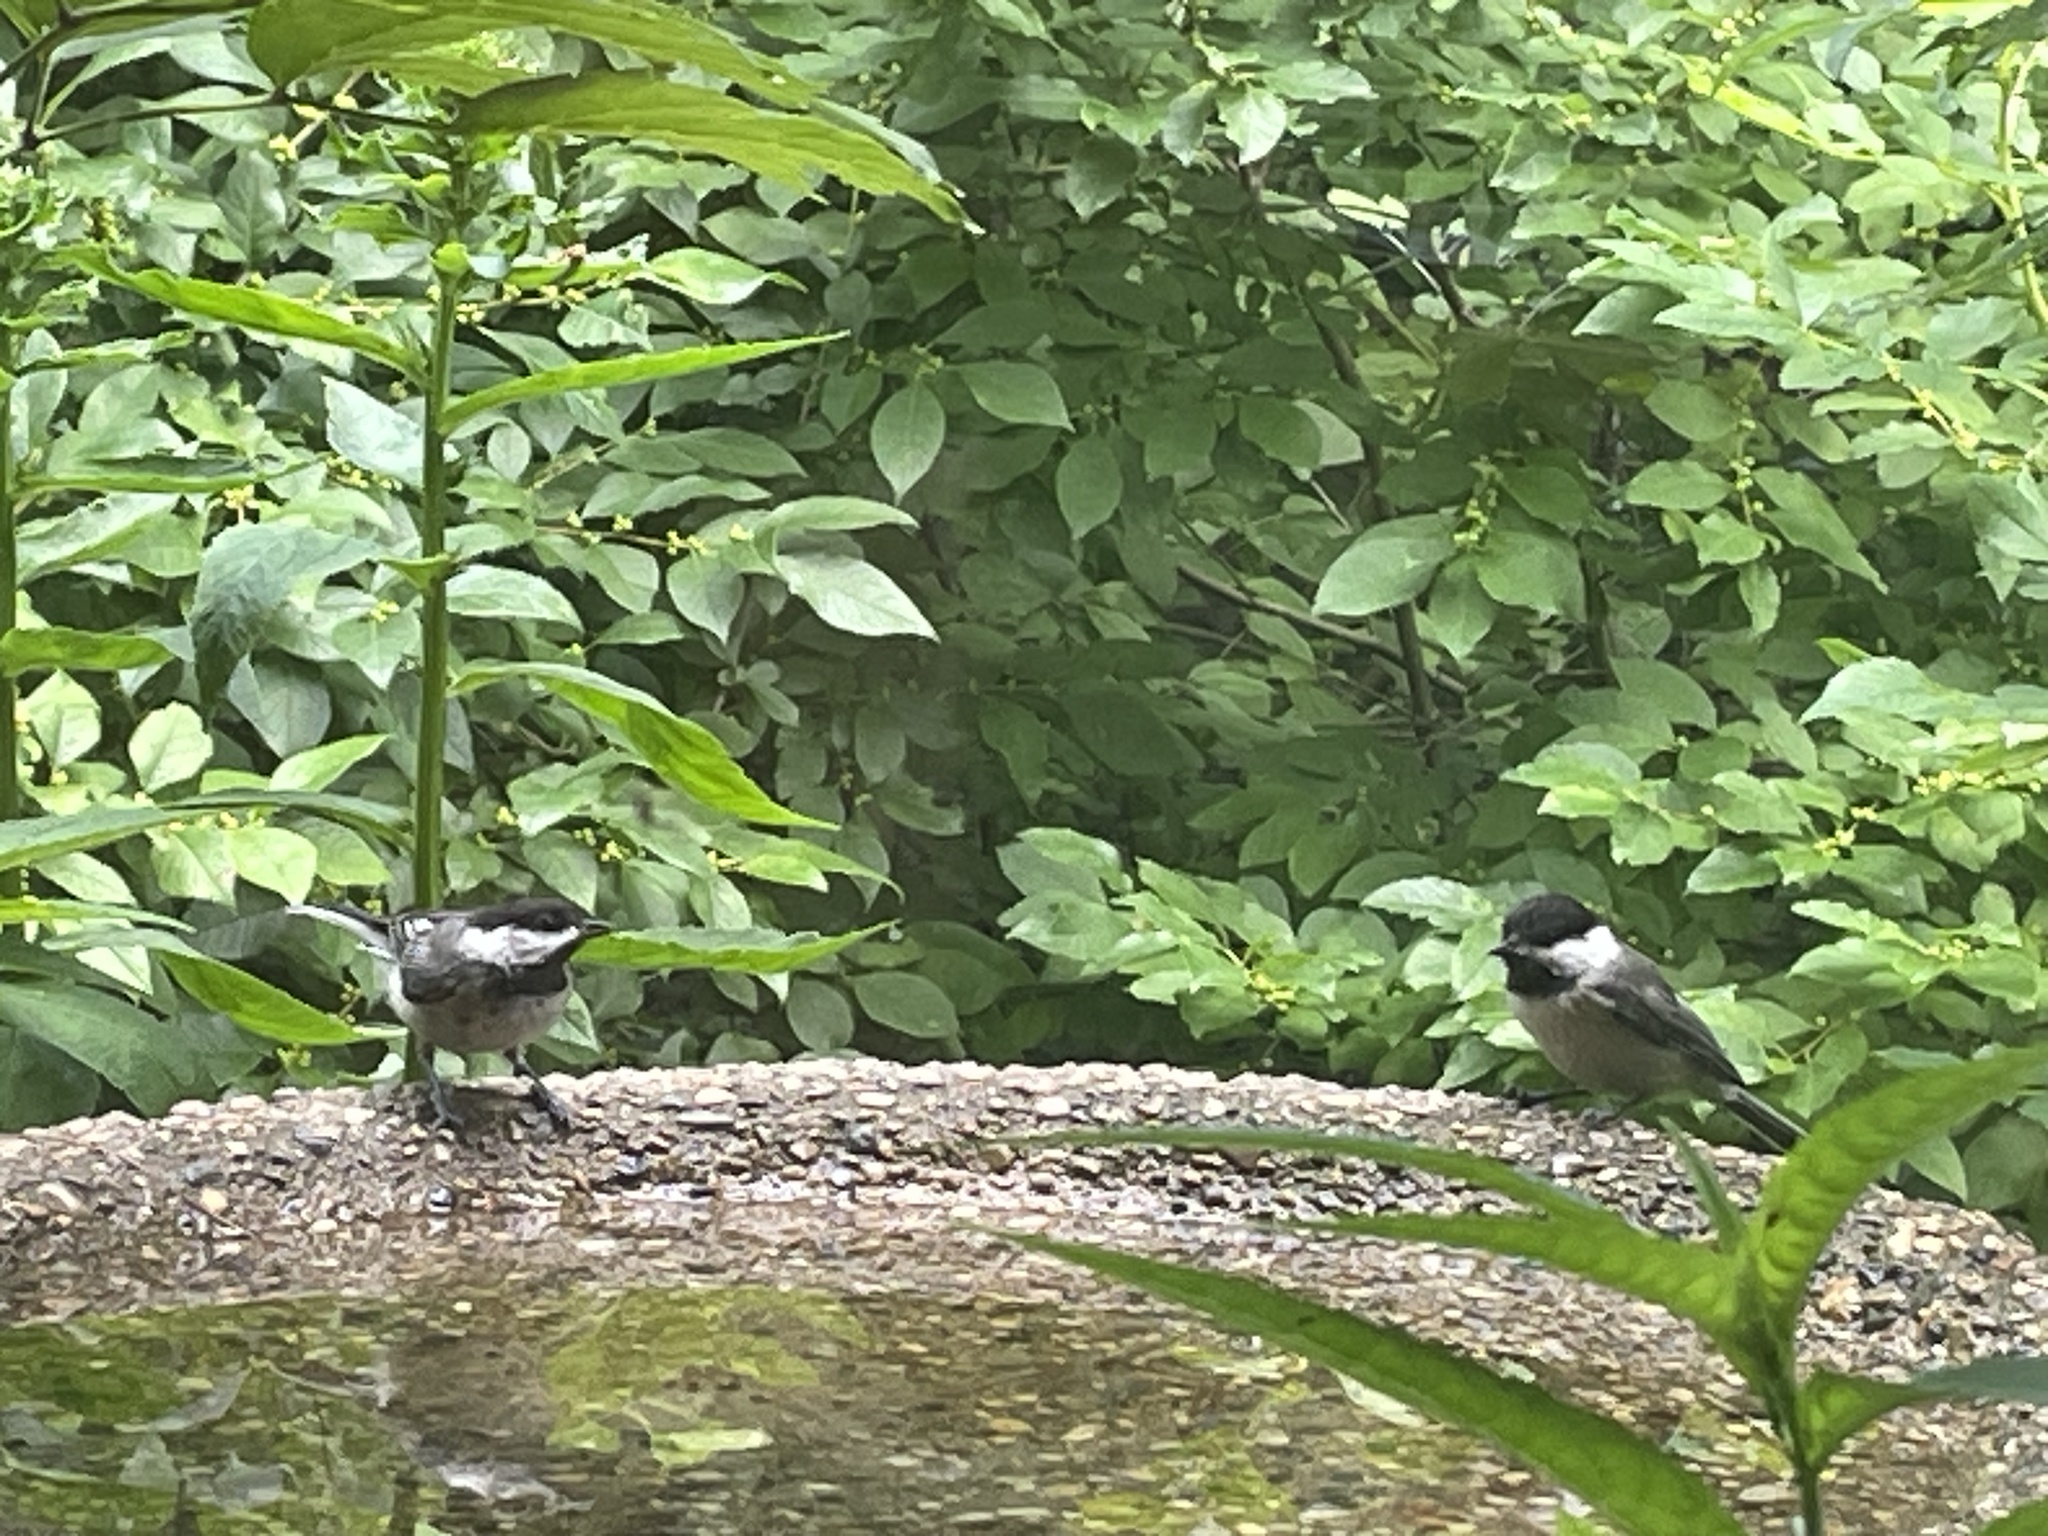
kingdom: Animalia
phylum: Chordata
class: Aves
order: Passeriformes
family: Paridae
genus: Poecile
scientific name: Poecile atricapillus
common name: Black-capped chickadee
